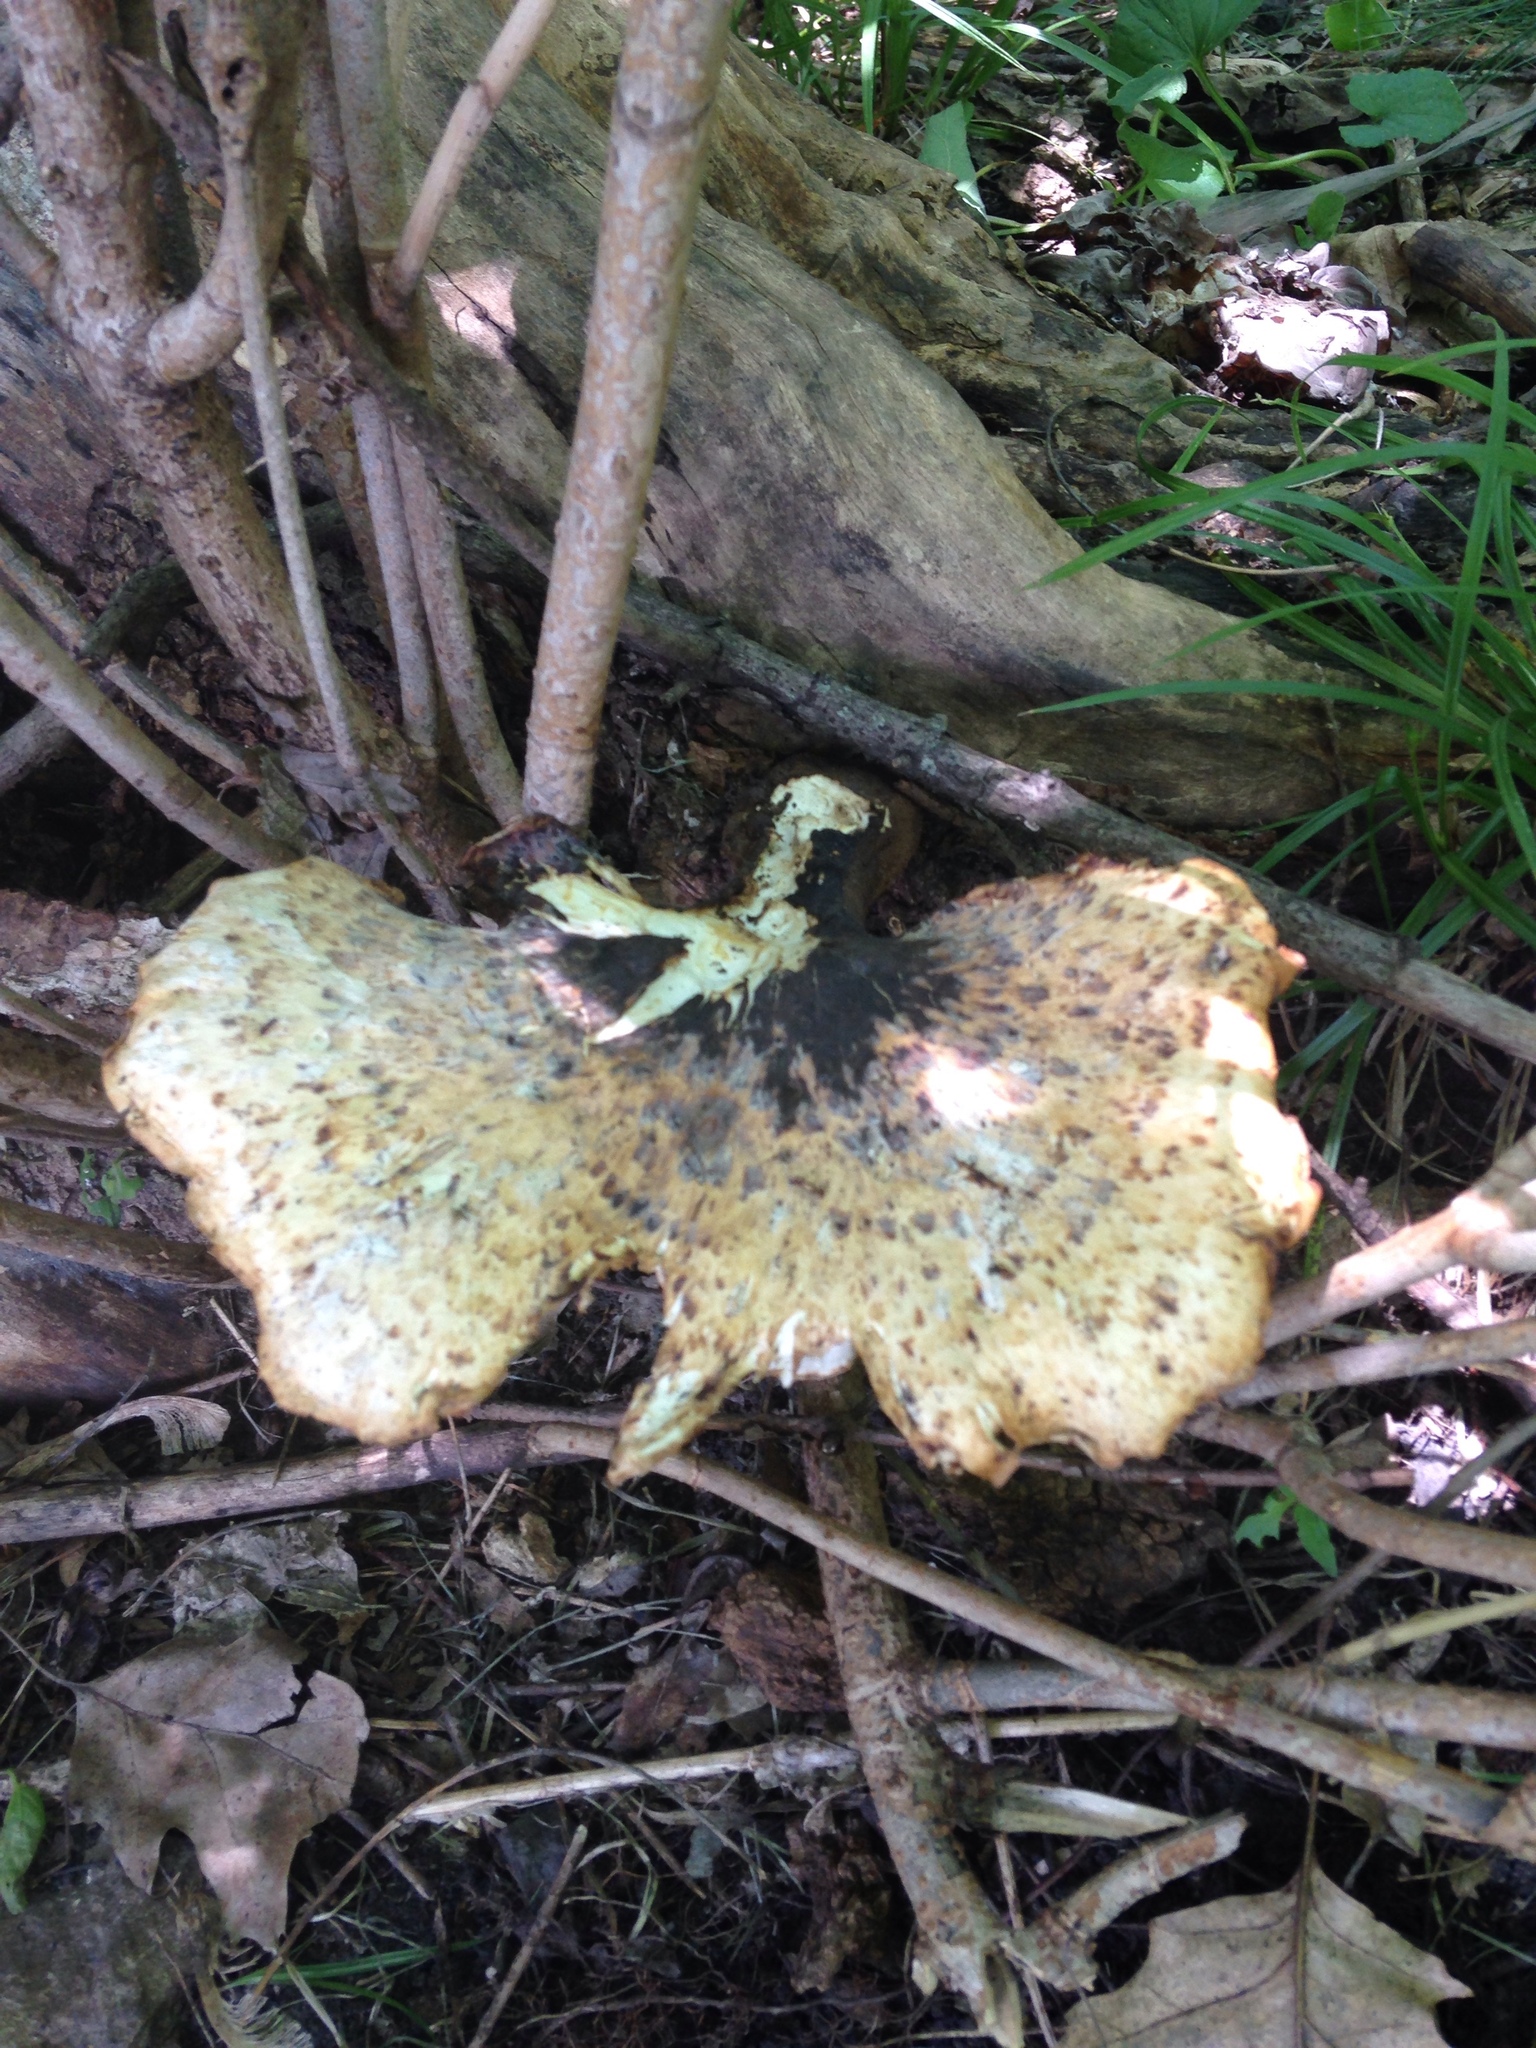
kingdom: Fungi
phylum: Basidiomycota
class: Agaricomycetes
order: Polyporales
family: Polyporaceae
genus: Cerioporus
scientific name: Cerioporus squamosus
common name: Dryad's saddle
